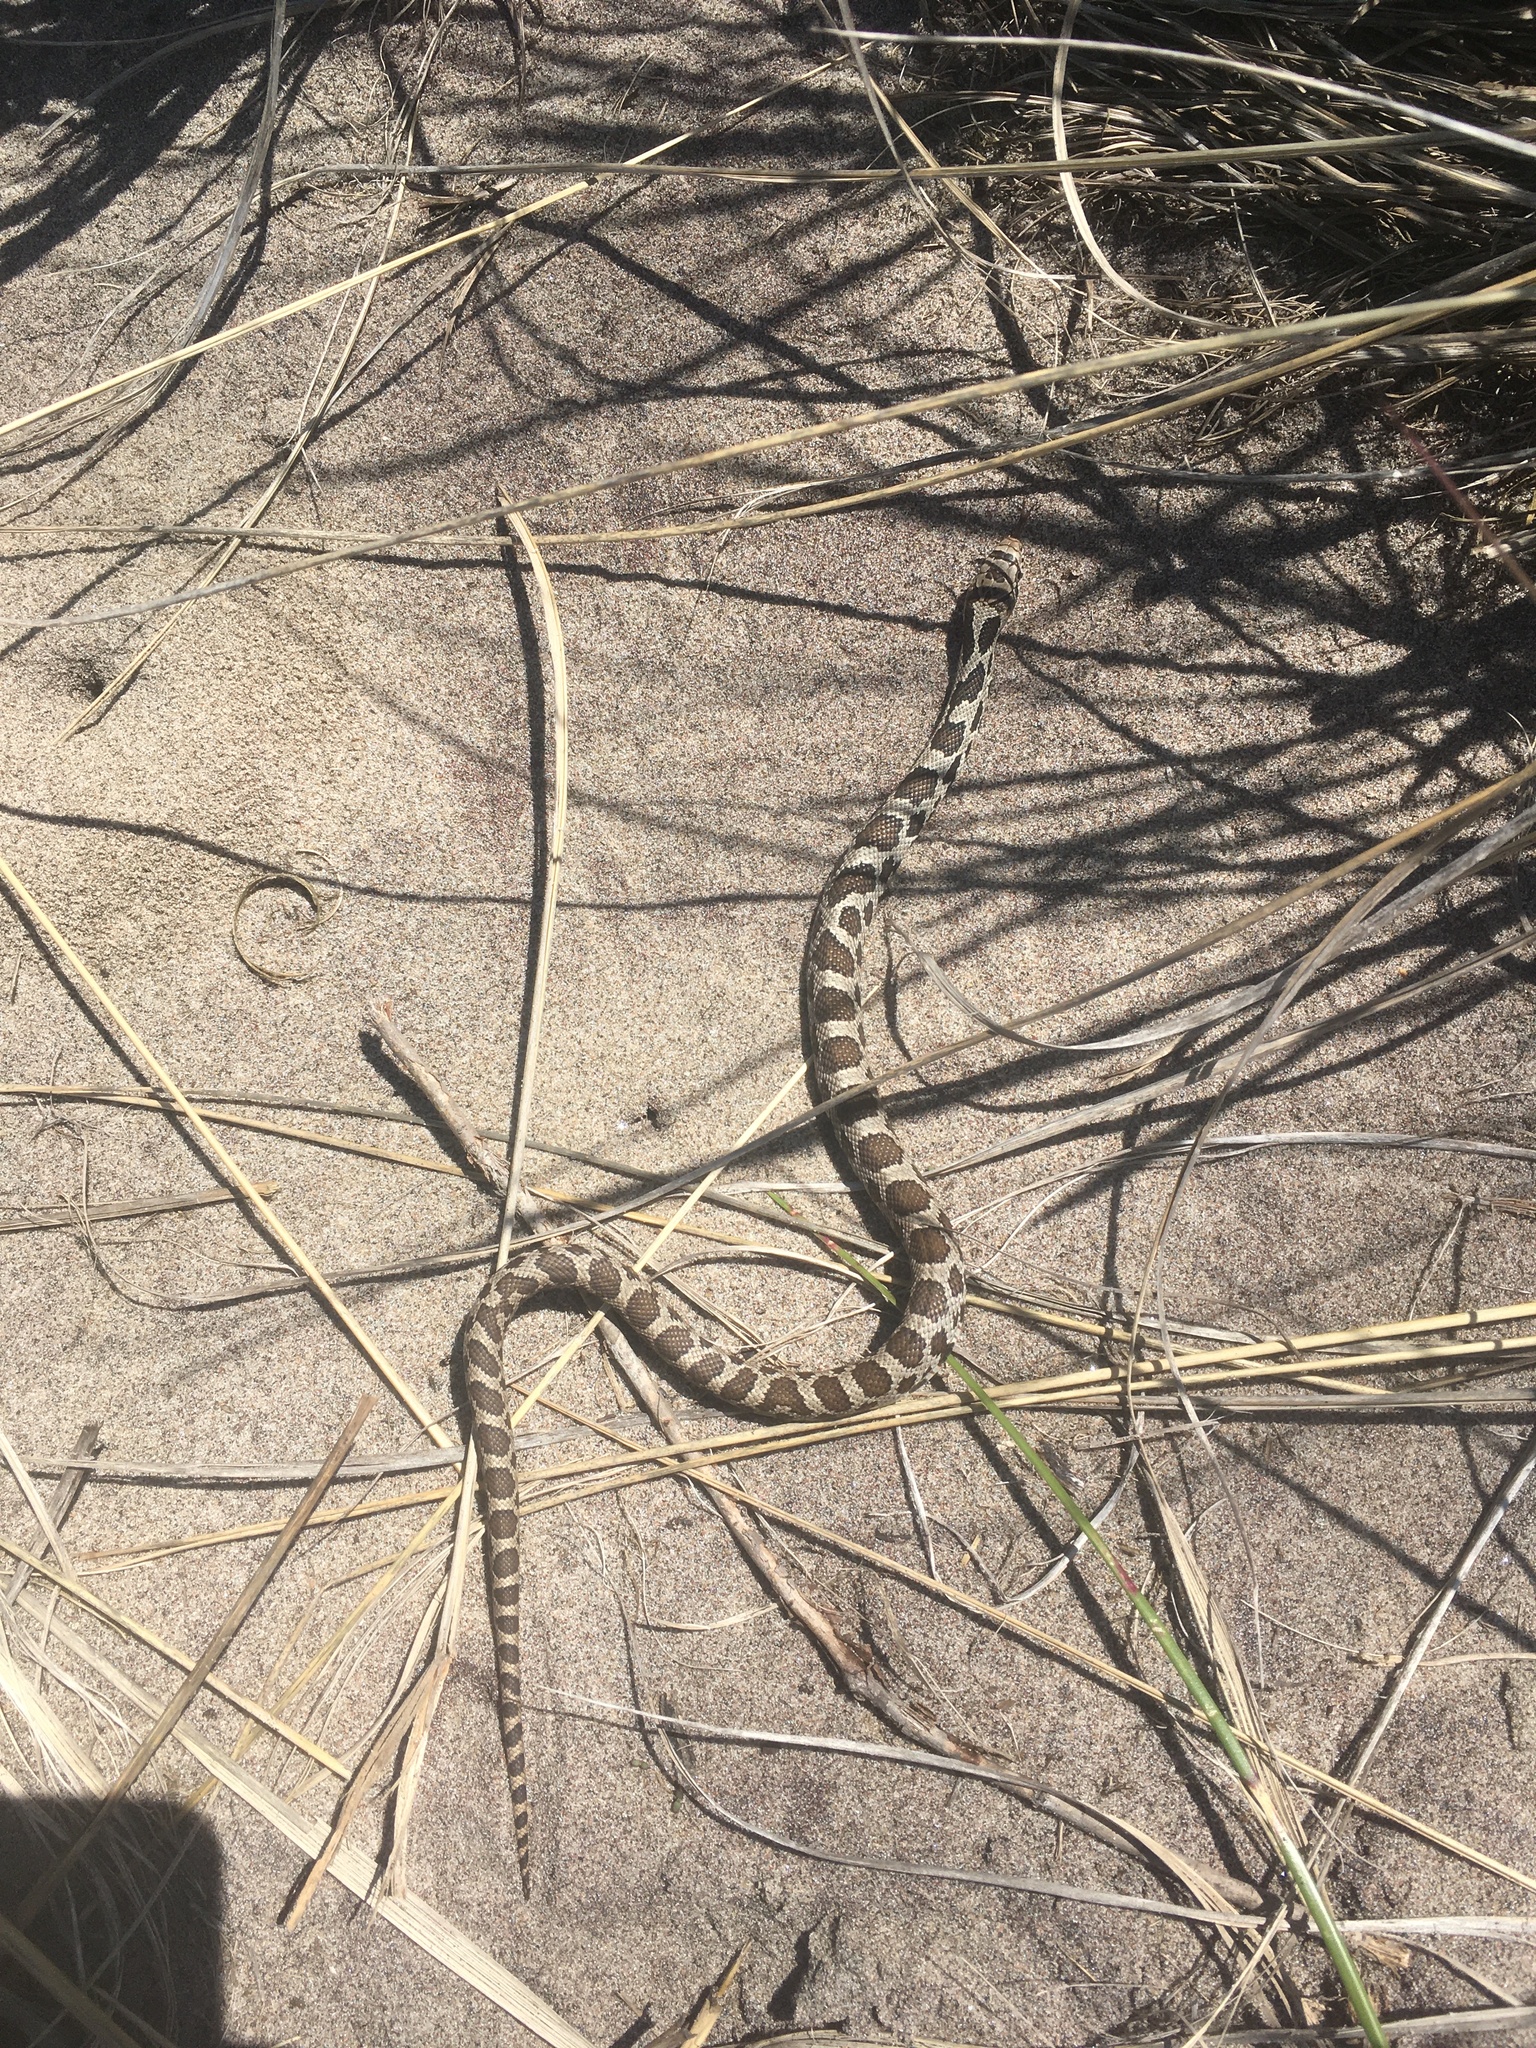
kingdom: Animalia
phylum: Chordata
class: Squamata
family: Colubridae
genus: Pantherophis
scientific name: Pantherophis vulpinus
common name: Eastern fox snake
